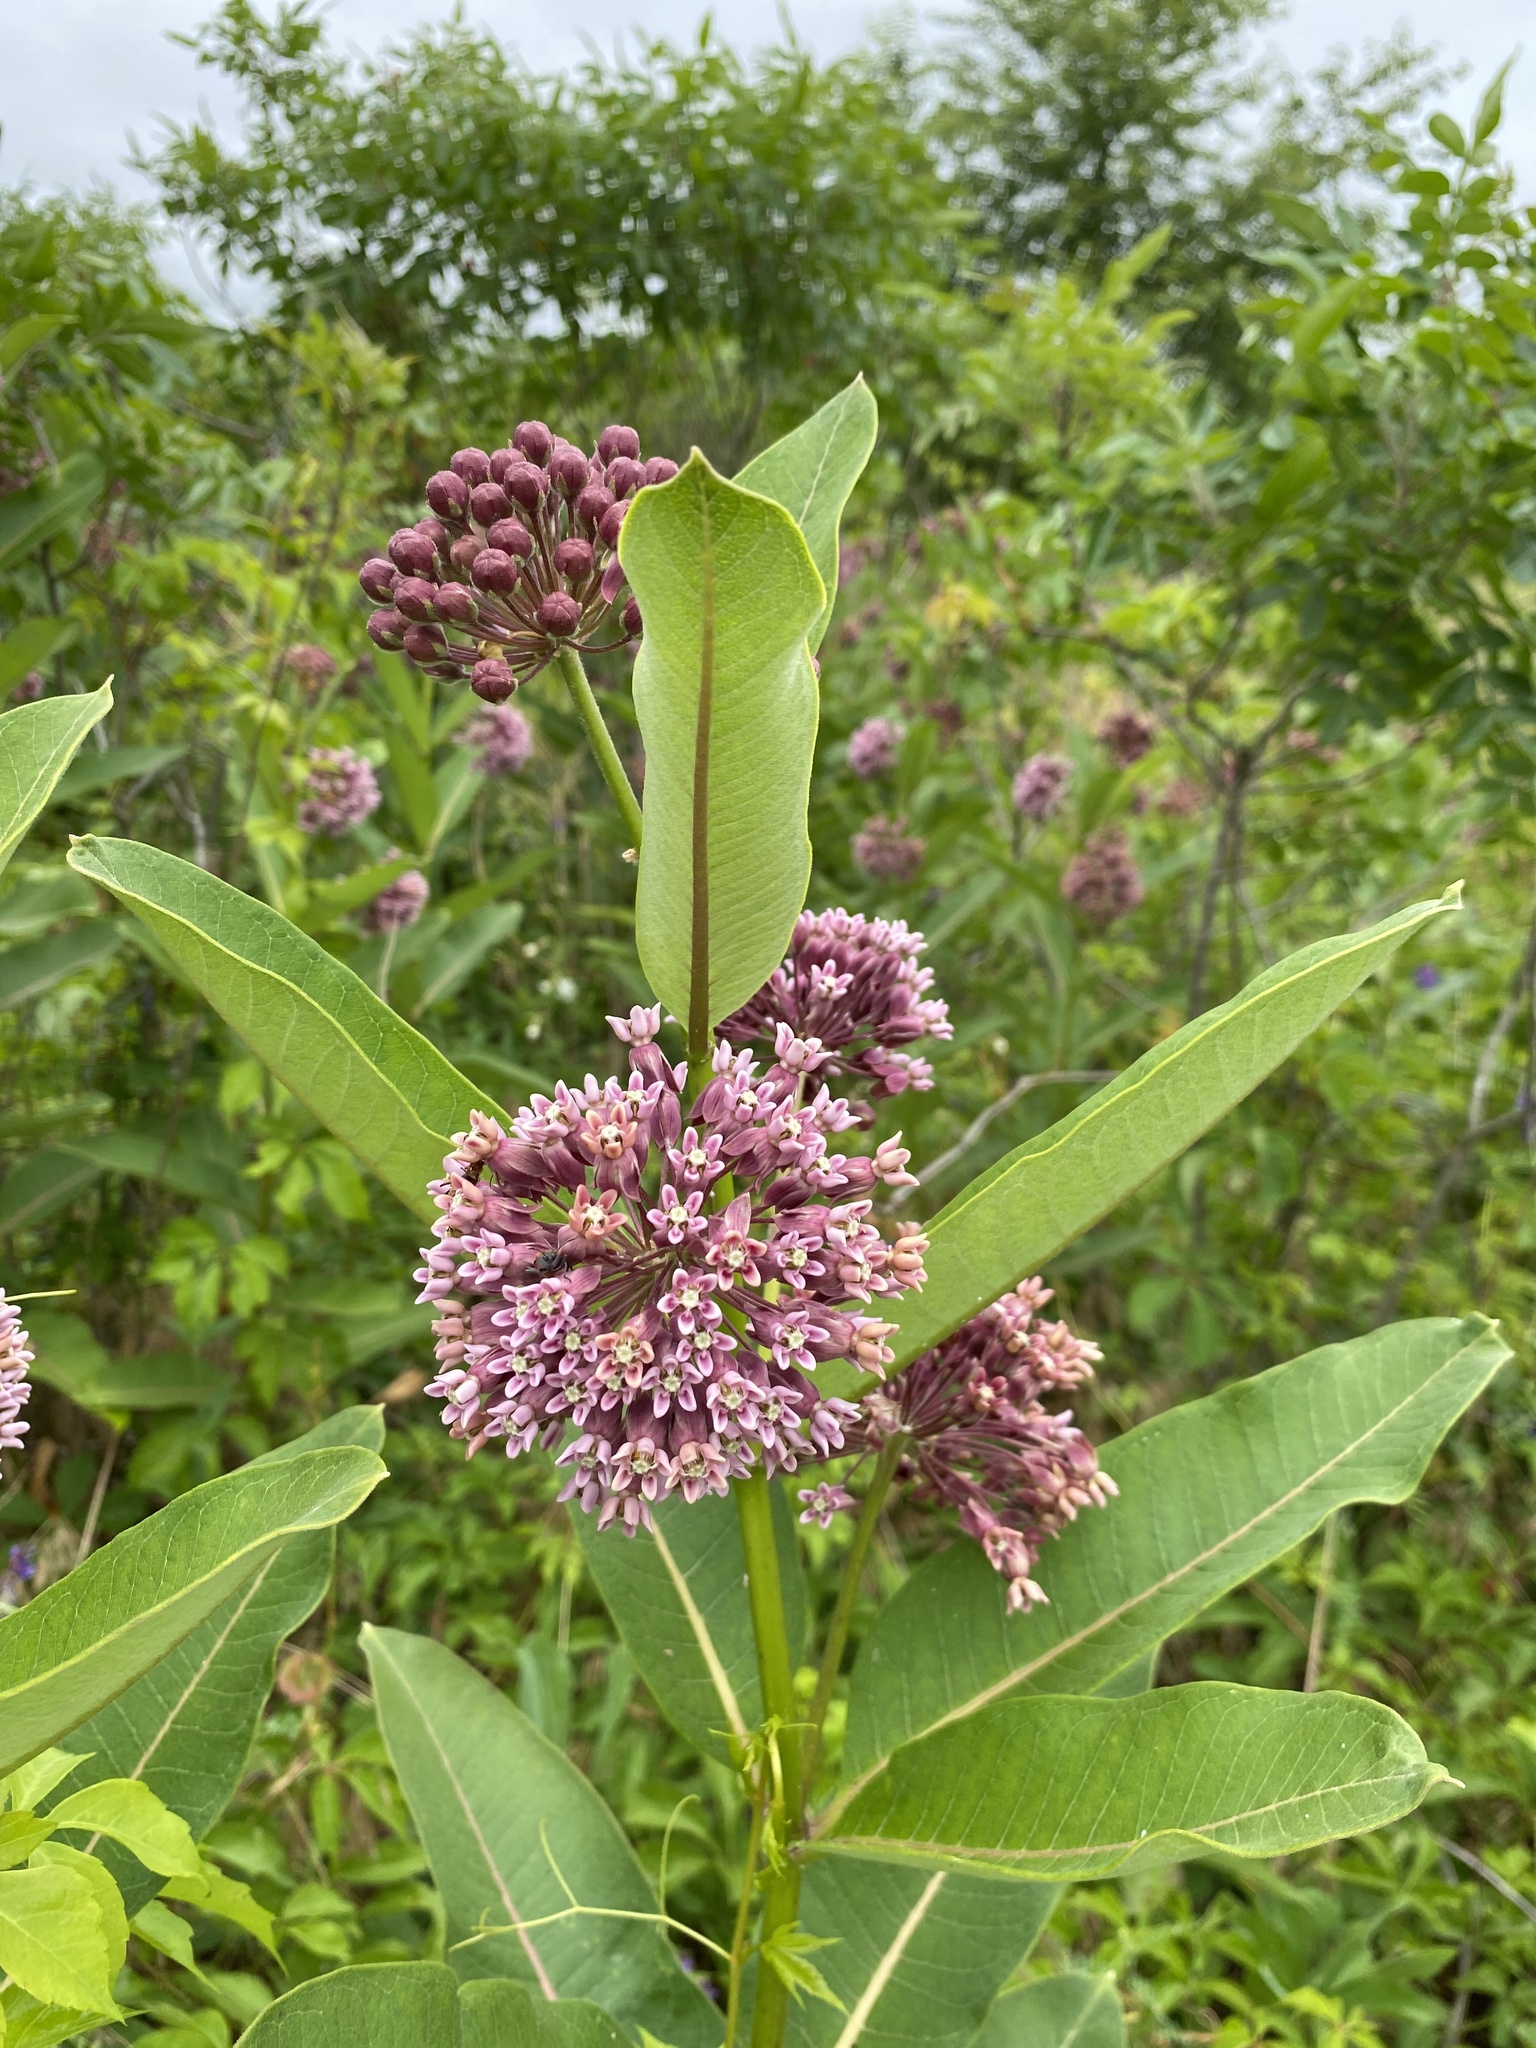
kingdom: Plantae
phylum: Tracheophyta
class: Magnoliopsida
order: Gentianales
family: Apocynaceae
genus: Asclepias
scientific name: Asclepias syriaca
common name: Common milkweed
